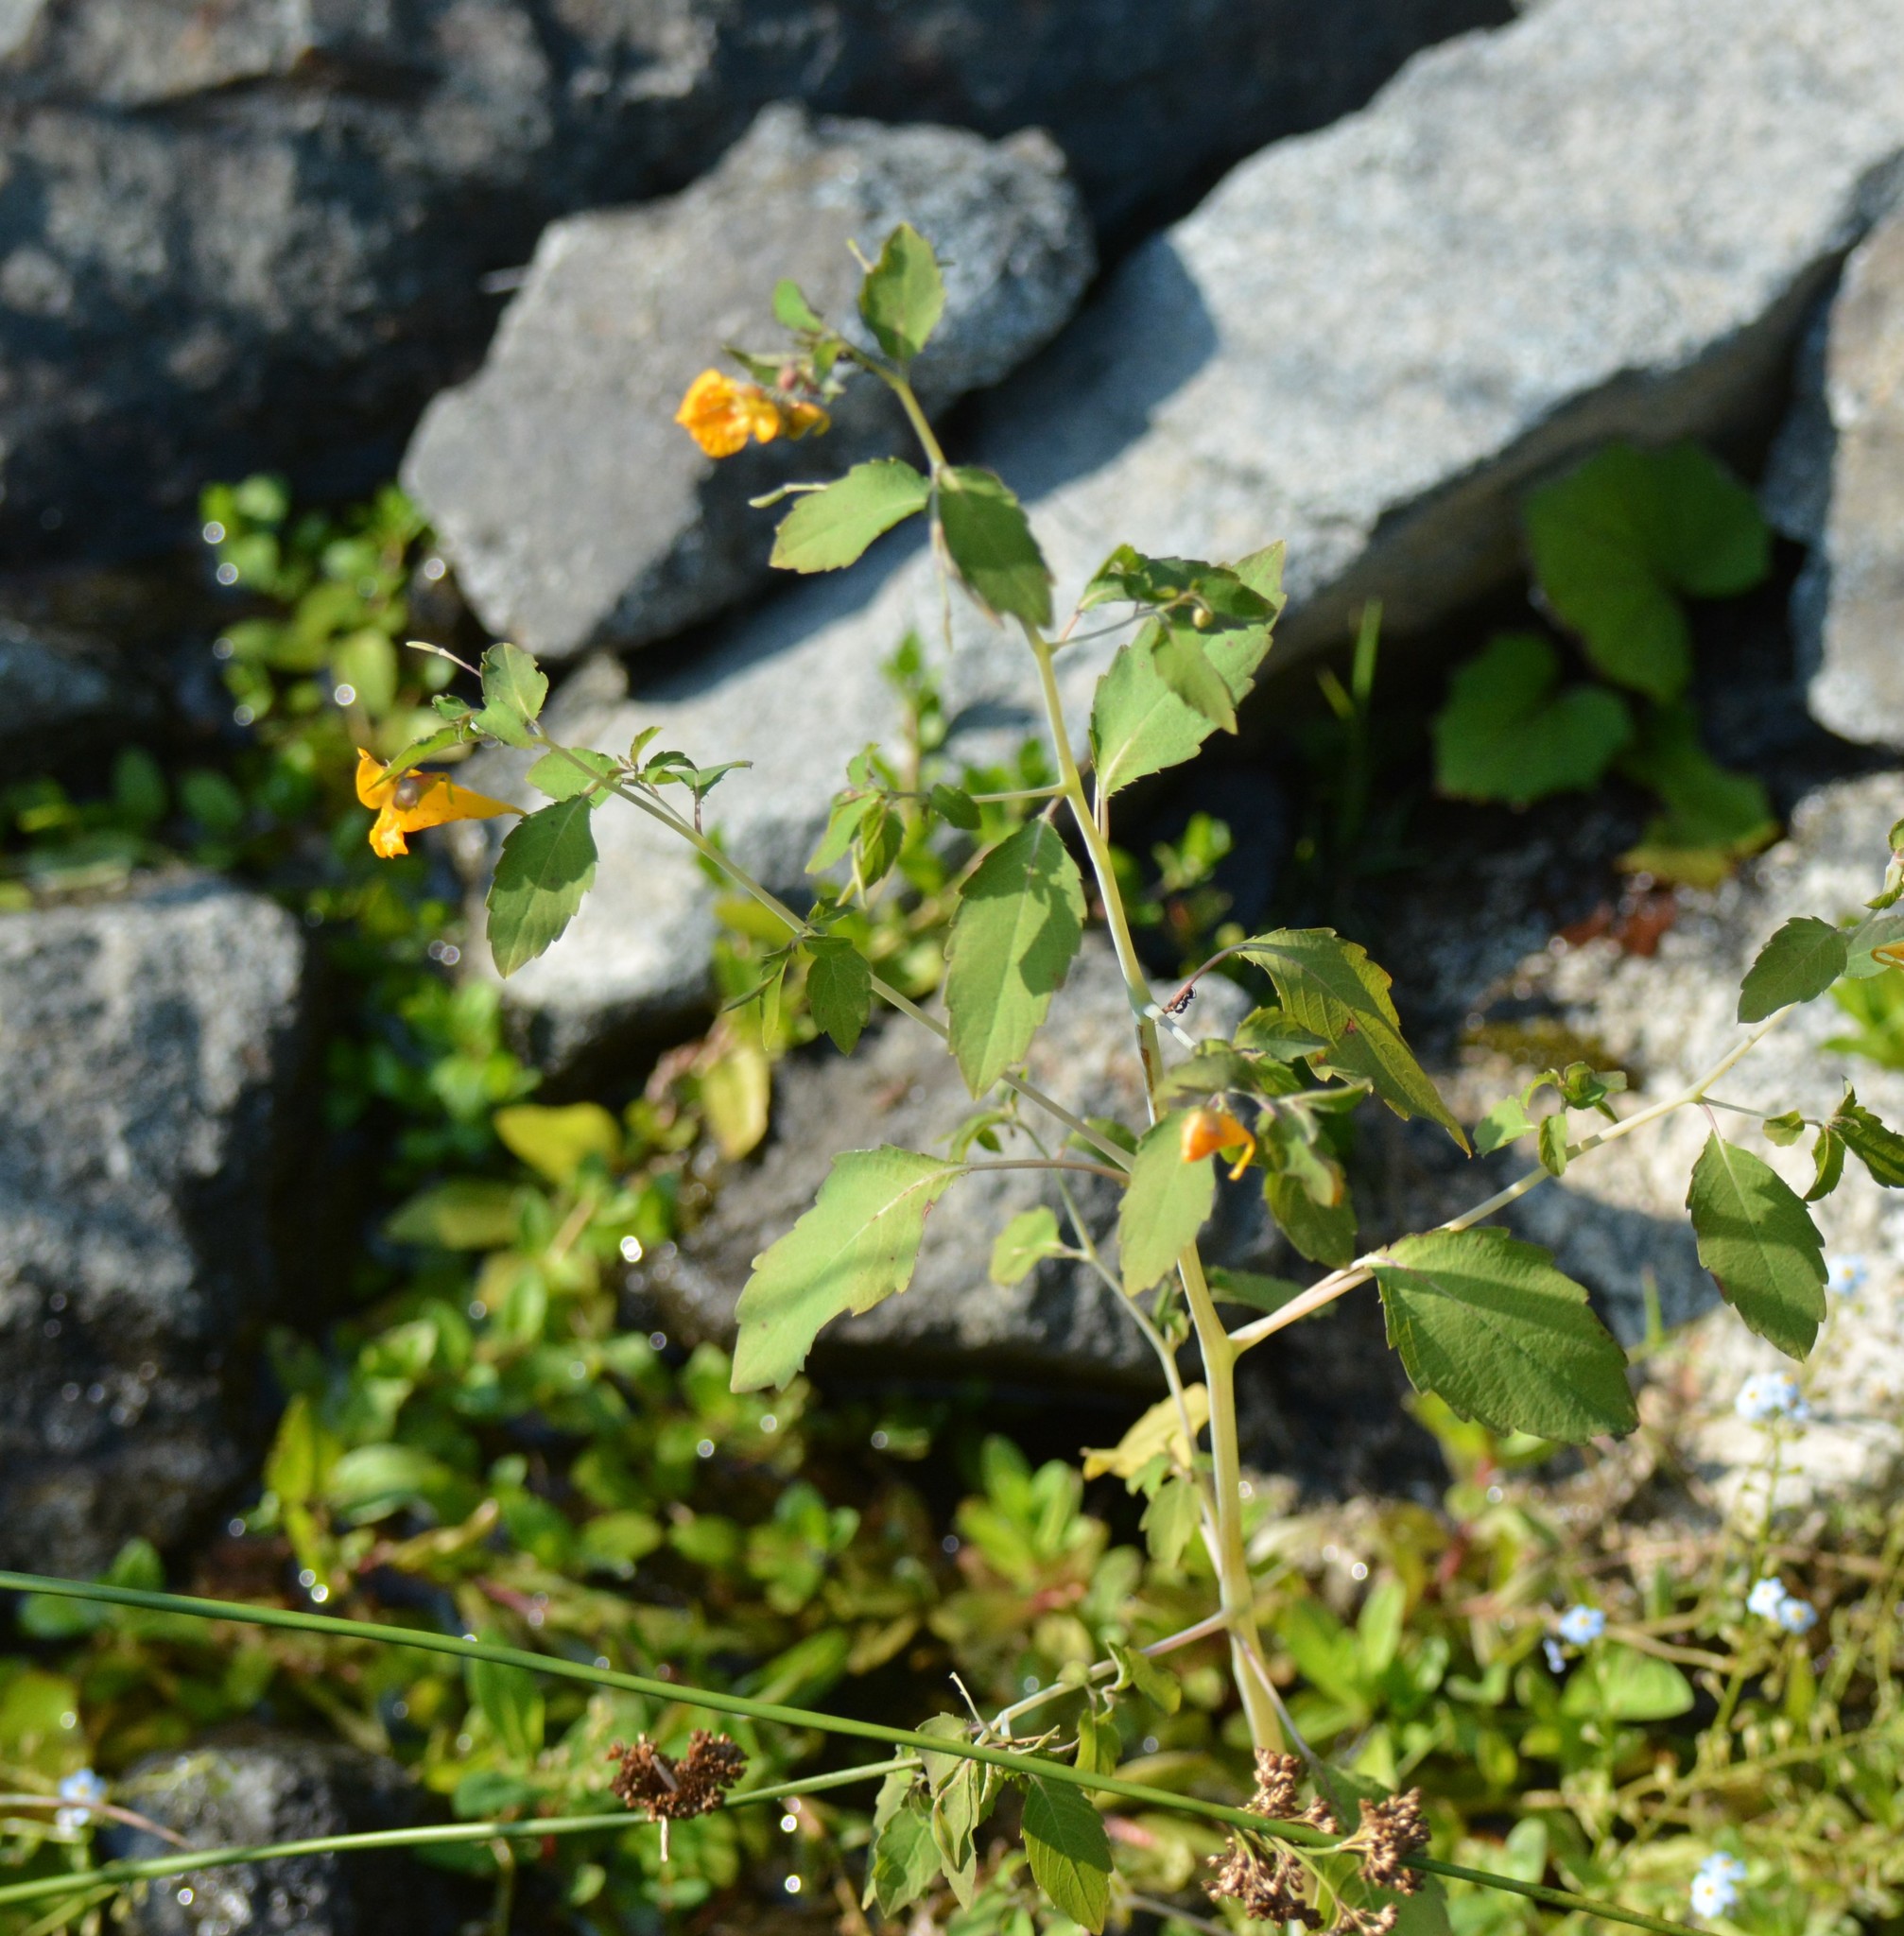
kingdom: Plantae
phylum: Tracheophyta
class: Magnoliopsida
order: Ericales
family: Balsaminaceae
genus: Impatiens
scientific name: Impatiens capensis
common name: Orange balsam
